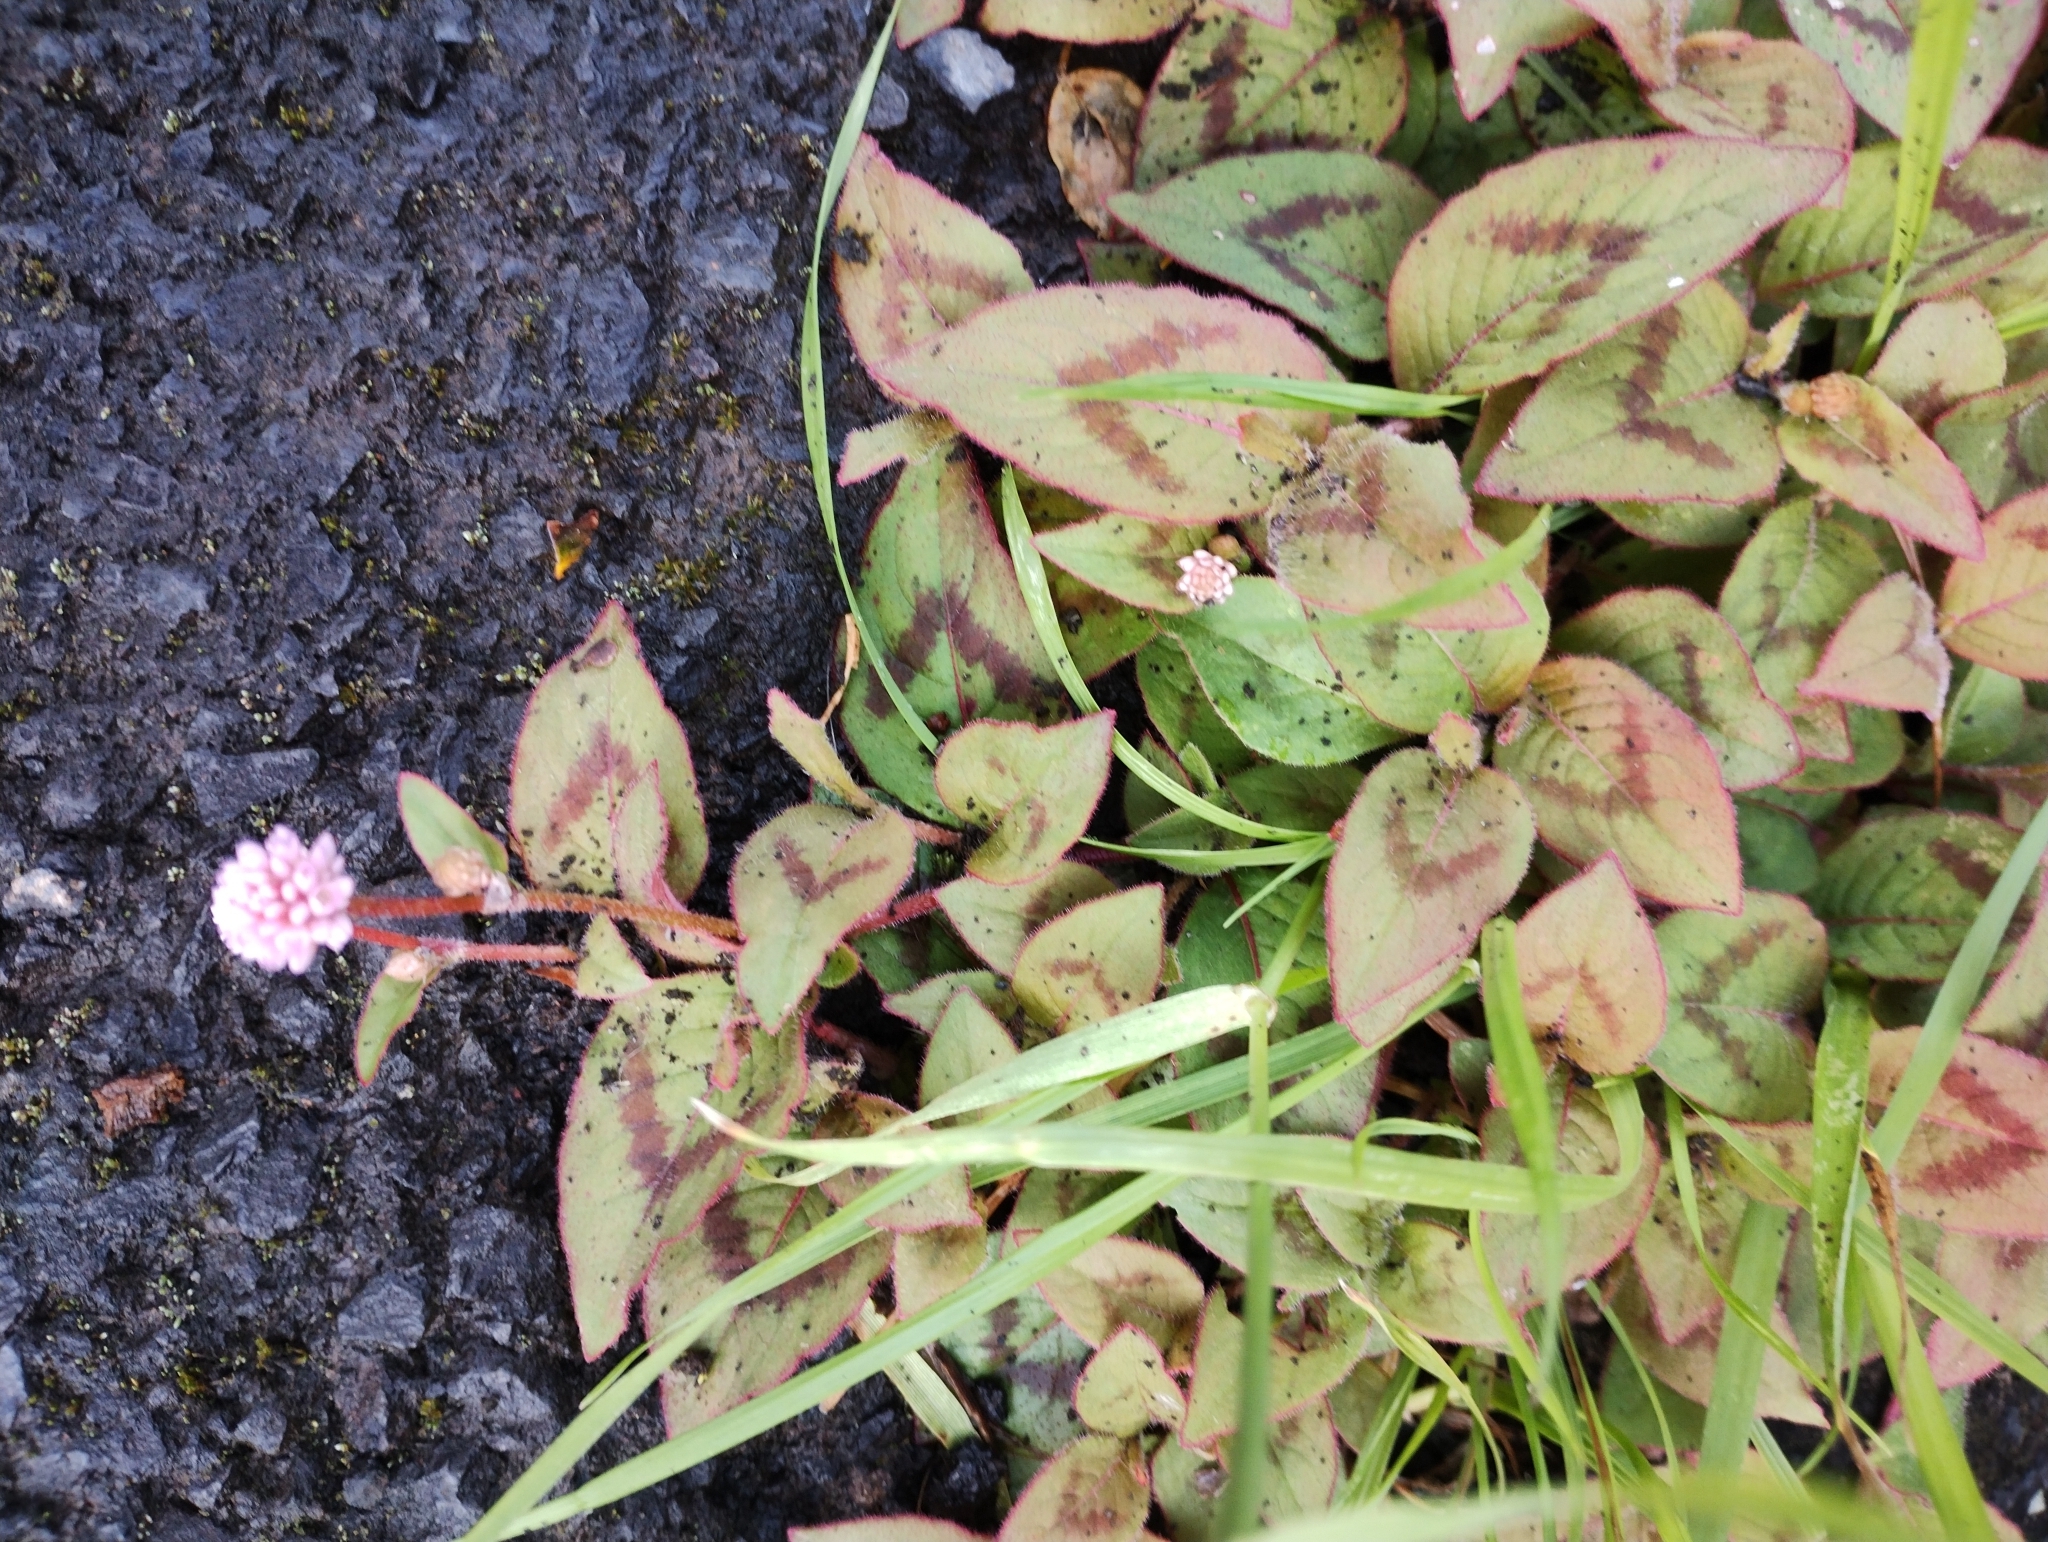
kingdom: Plantae
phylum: Tracheophyta
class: Magnoliopsida
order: Caryophyllales
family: Polygonaceae
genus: Persicaria
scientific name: Persicaria capitata
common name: Pinkhead smartweed
